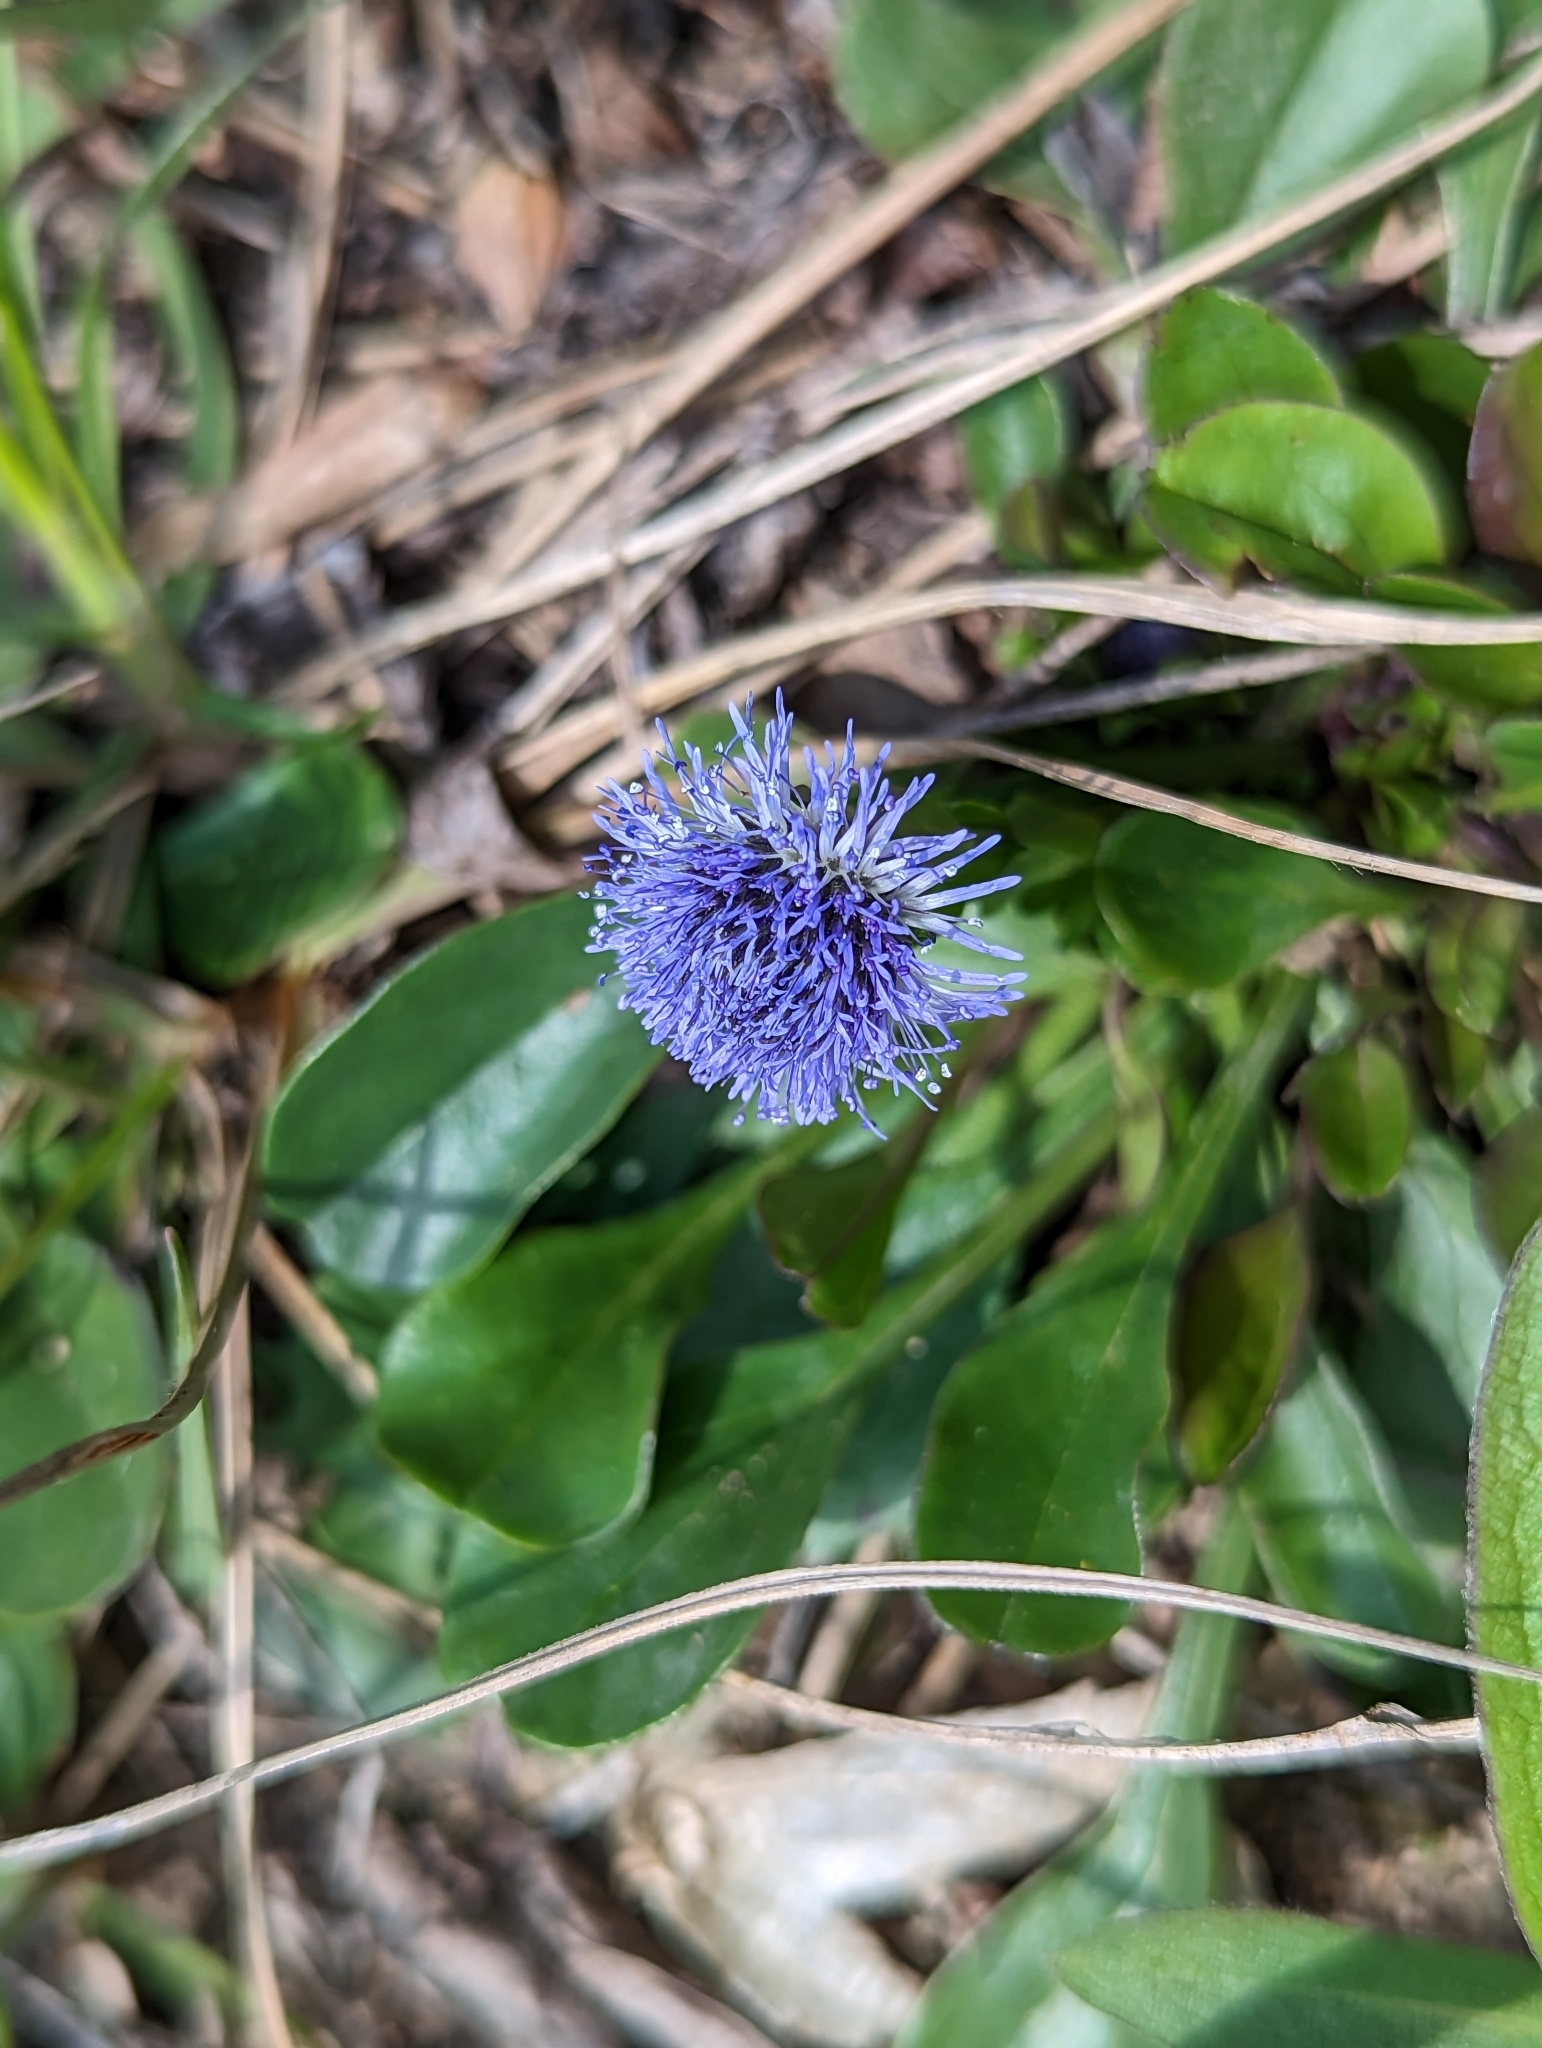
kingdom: Plantae
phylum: Tracheophyta
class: Magnoliopsida
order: Lamiales
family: Plantaginaceae
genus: Globularia
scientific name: Globularia bisnagarica
